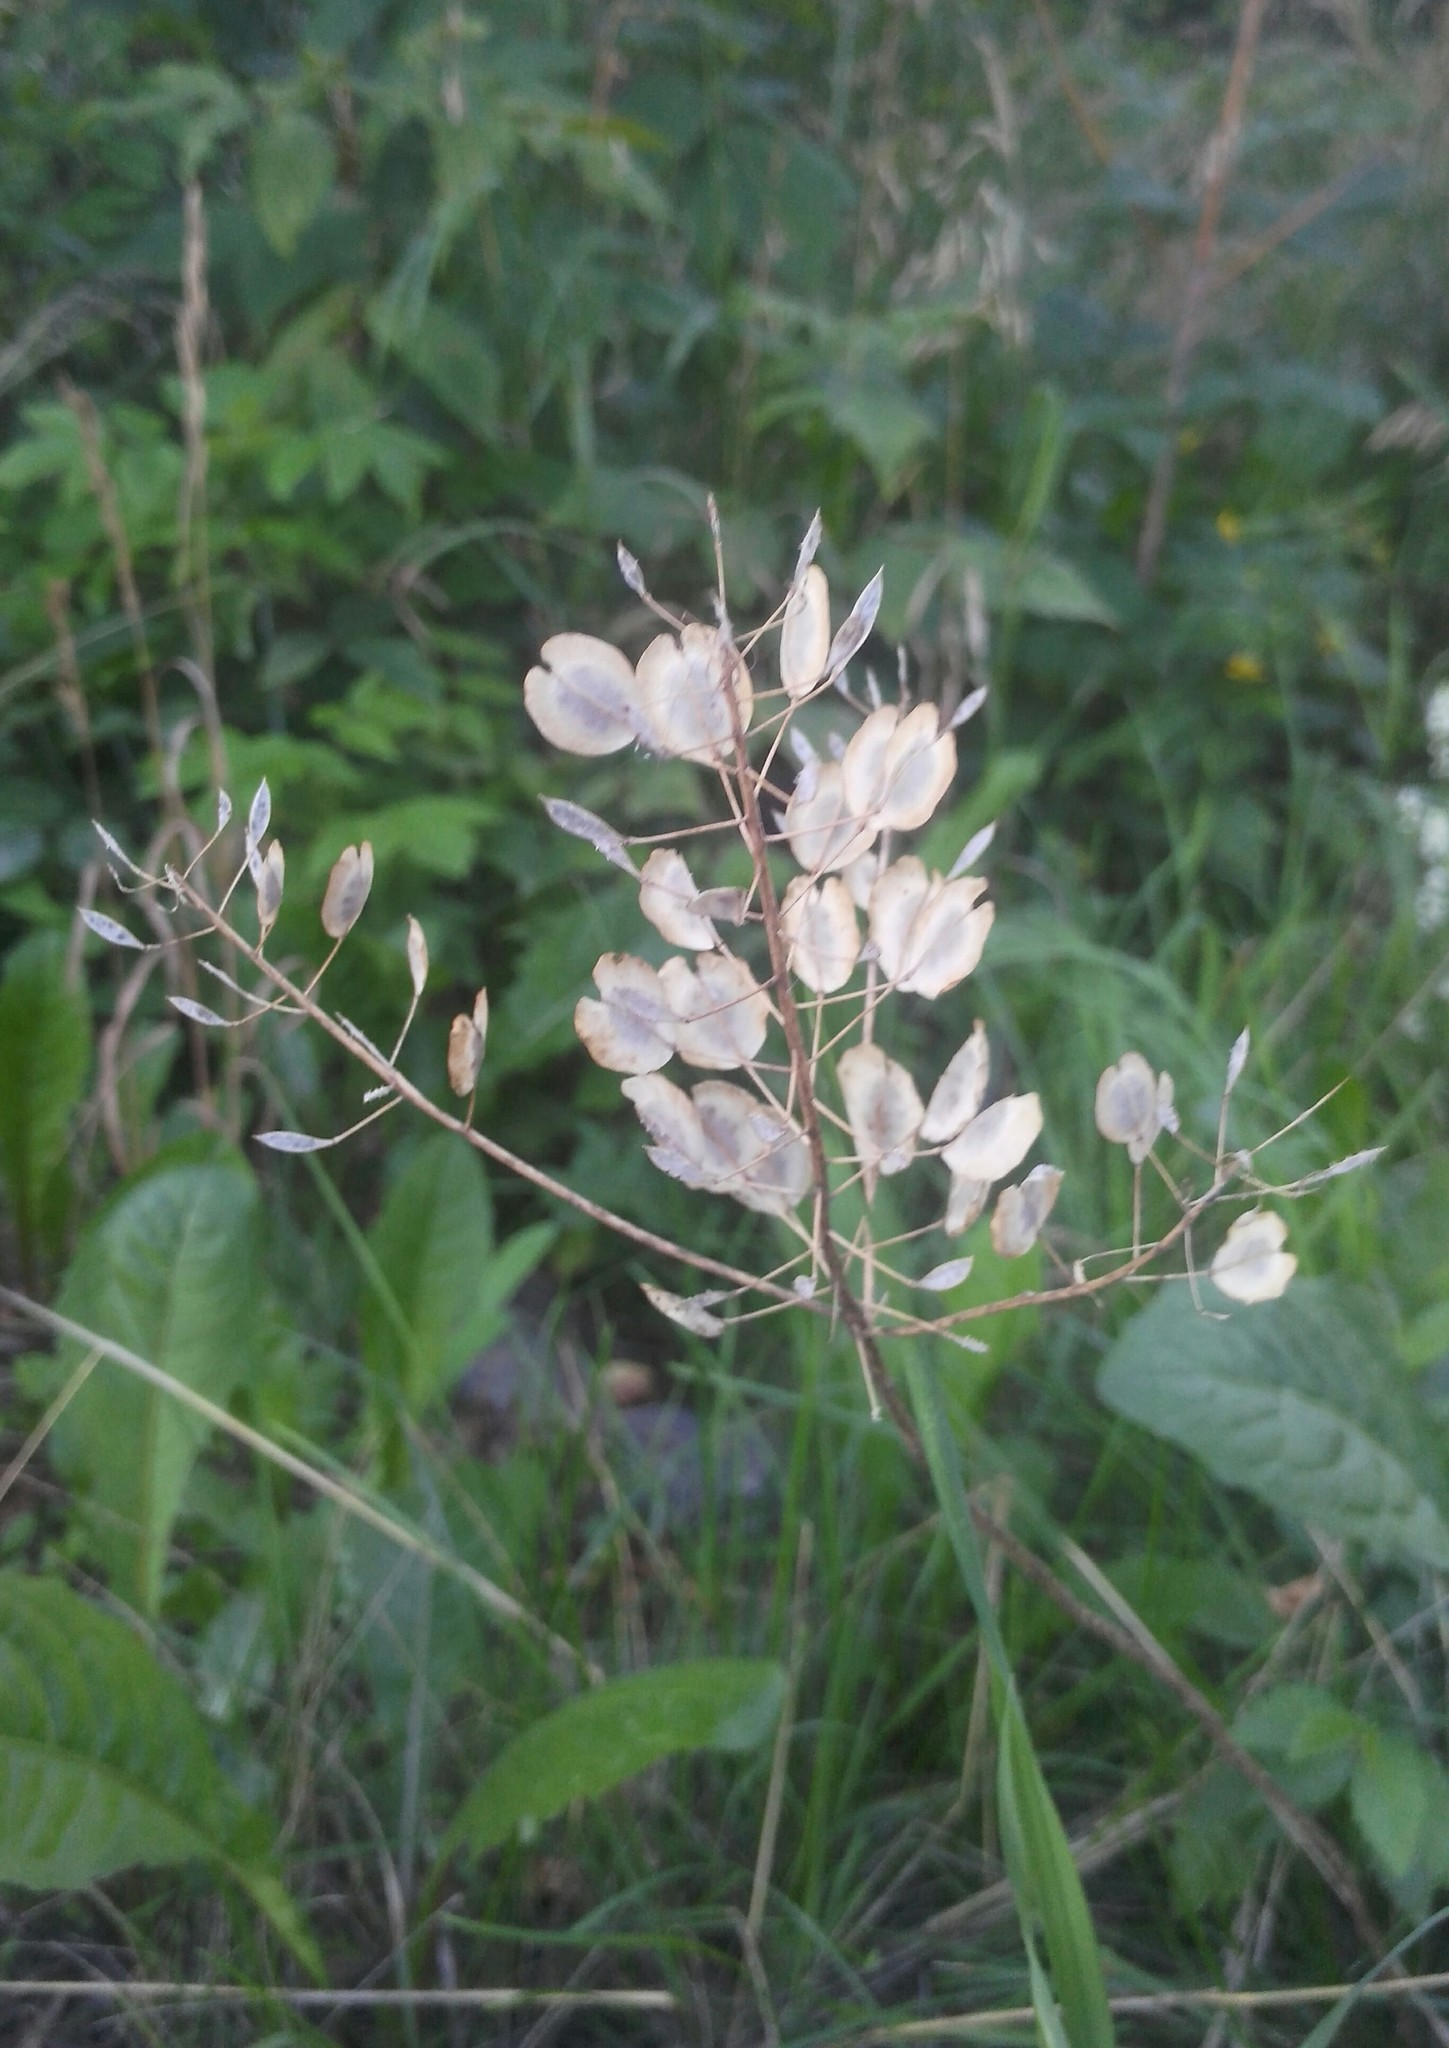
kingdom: Plantae
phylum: Tracheophyta
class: Magnoliopsida
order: Brassicales
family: Brassicaceae
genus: Thlaspi
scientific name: Thlaspi arvense
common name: Field pennycress
